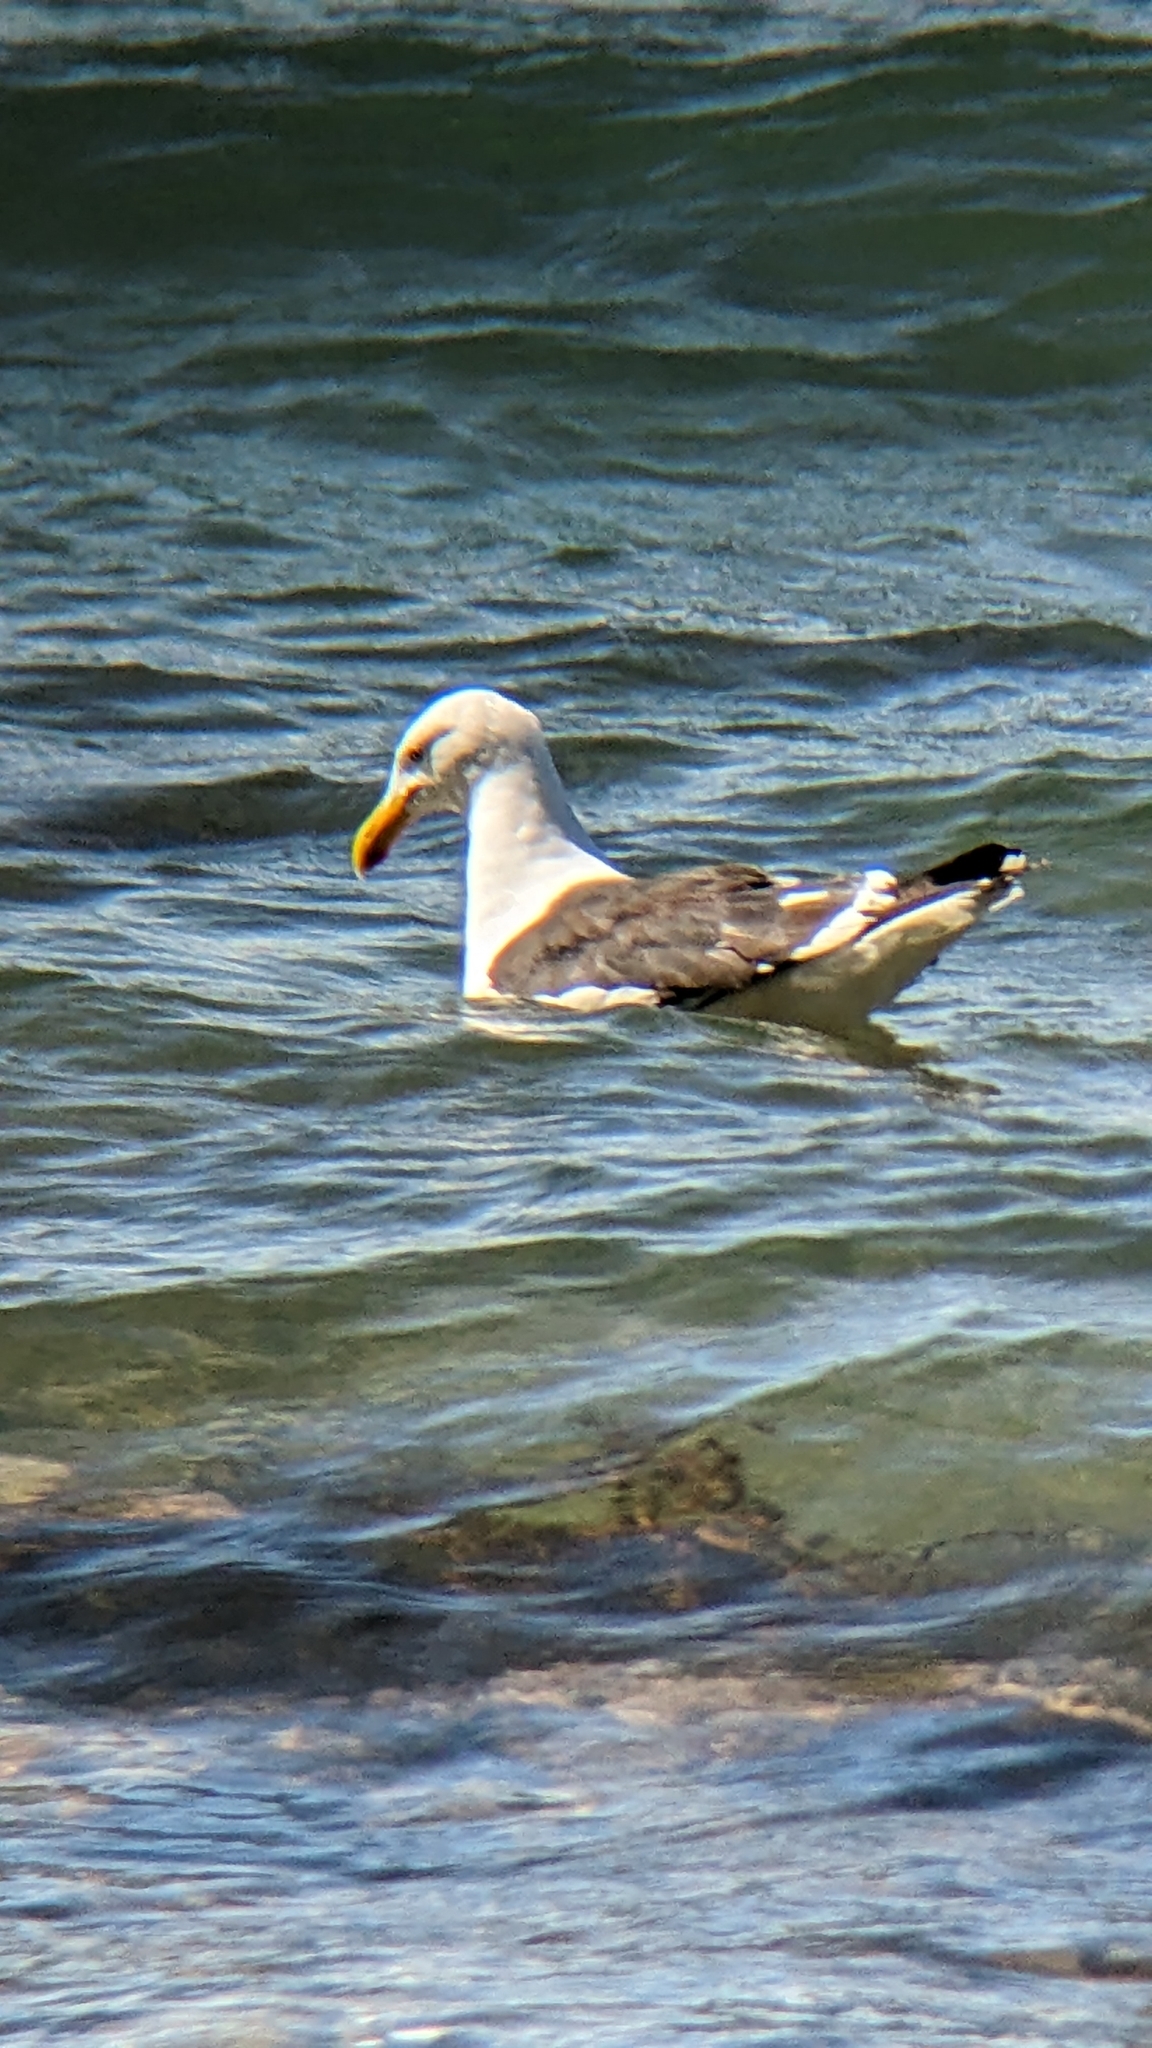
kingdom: Animalia
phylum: Chordata
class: Aves
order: Charadriiformes
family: Laridae
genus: Larus
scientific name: Larus dominicanus
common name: Kelp gull
